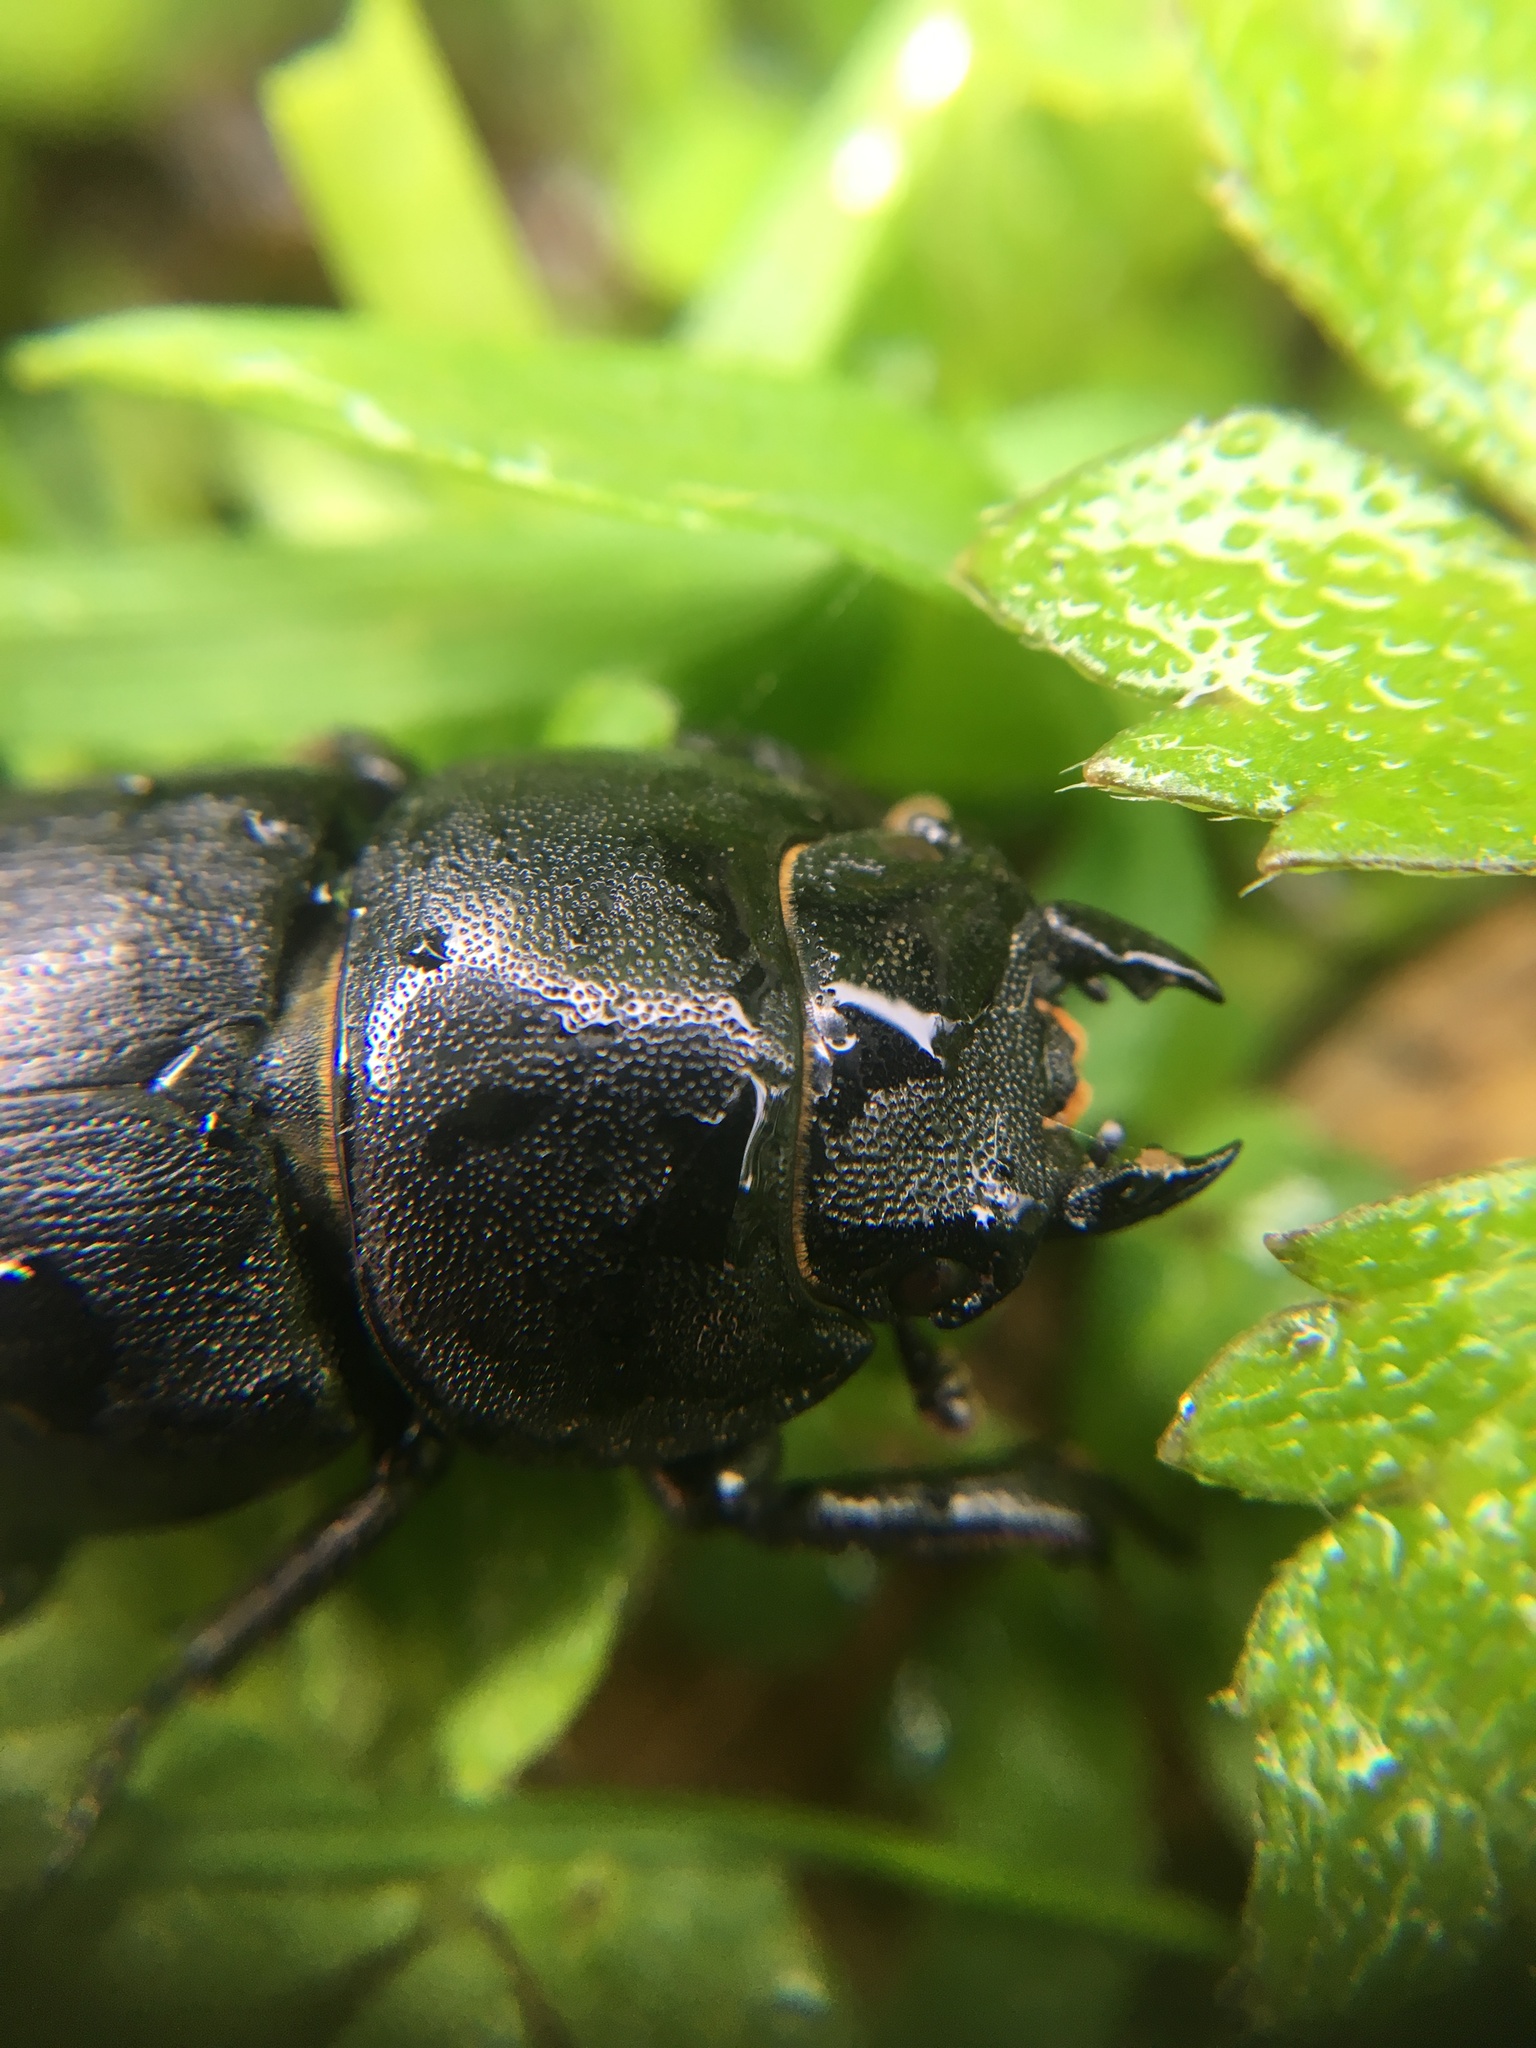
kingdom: Animalia
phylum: Arthropoda
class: Insecta
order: Coleoptera
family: Lucanidae
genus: Dorcus
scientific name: Dorcus parallelipipedus
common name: Lesser stag beetle
